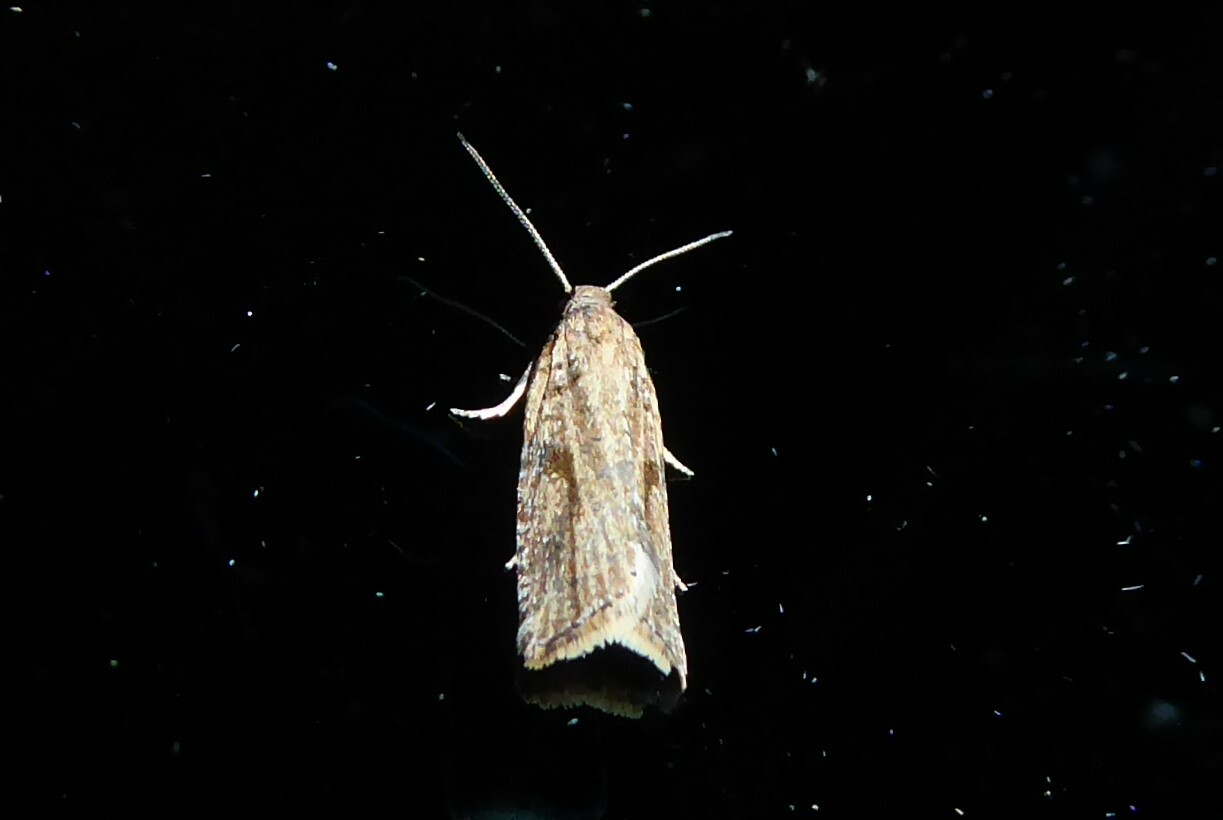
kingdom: Animalia
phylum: Arthropoda
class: Insecta
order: Lepidoptera
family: Tortricidae
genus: Capua
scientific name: Capua semiferana
